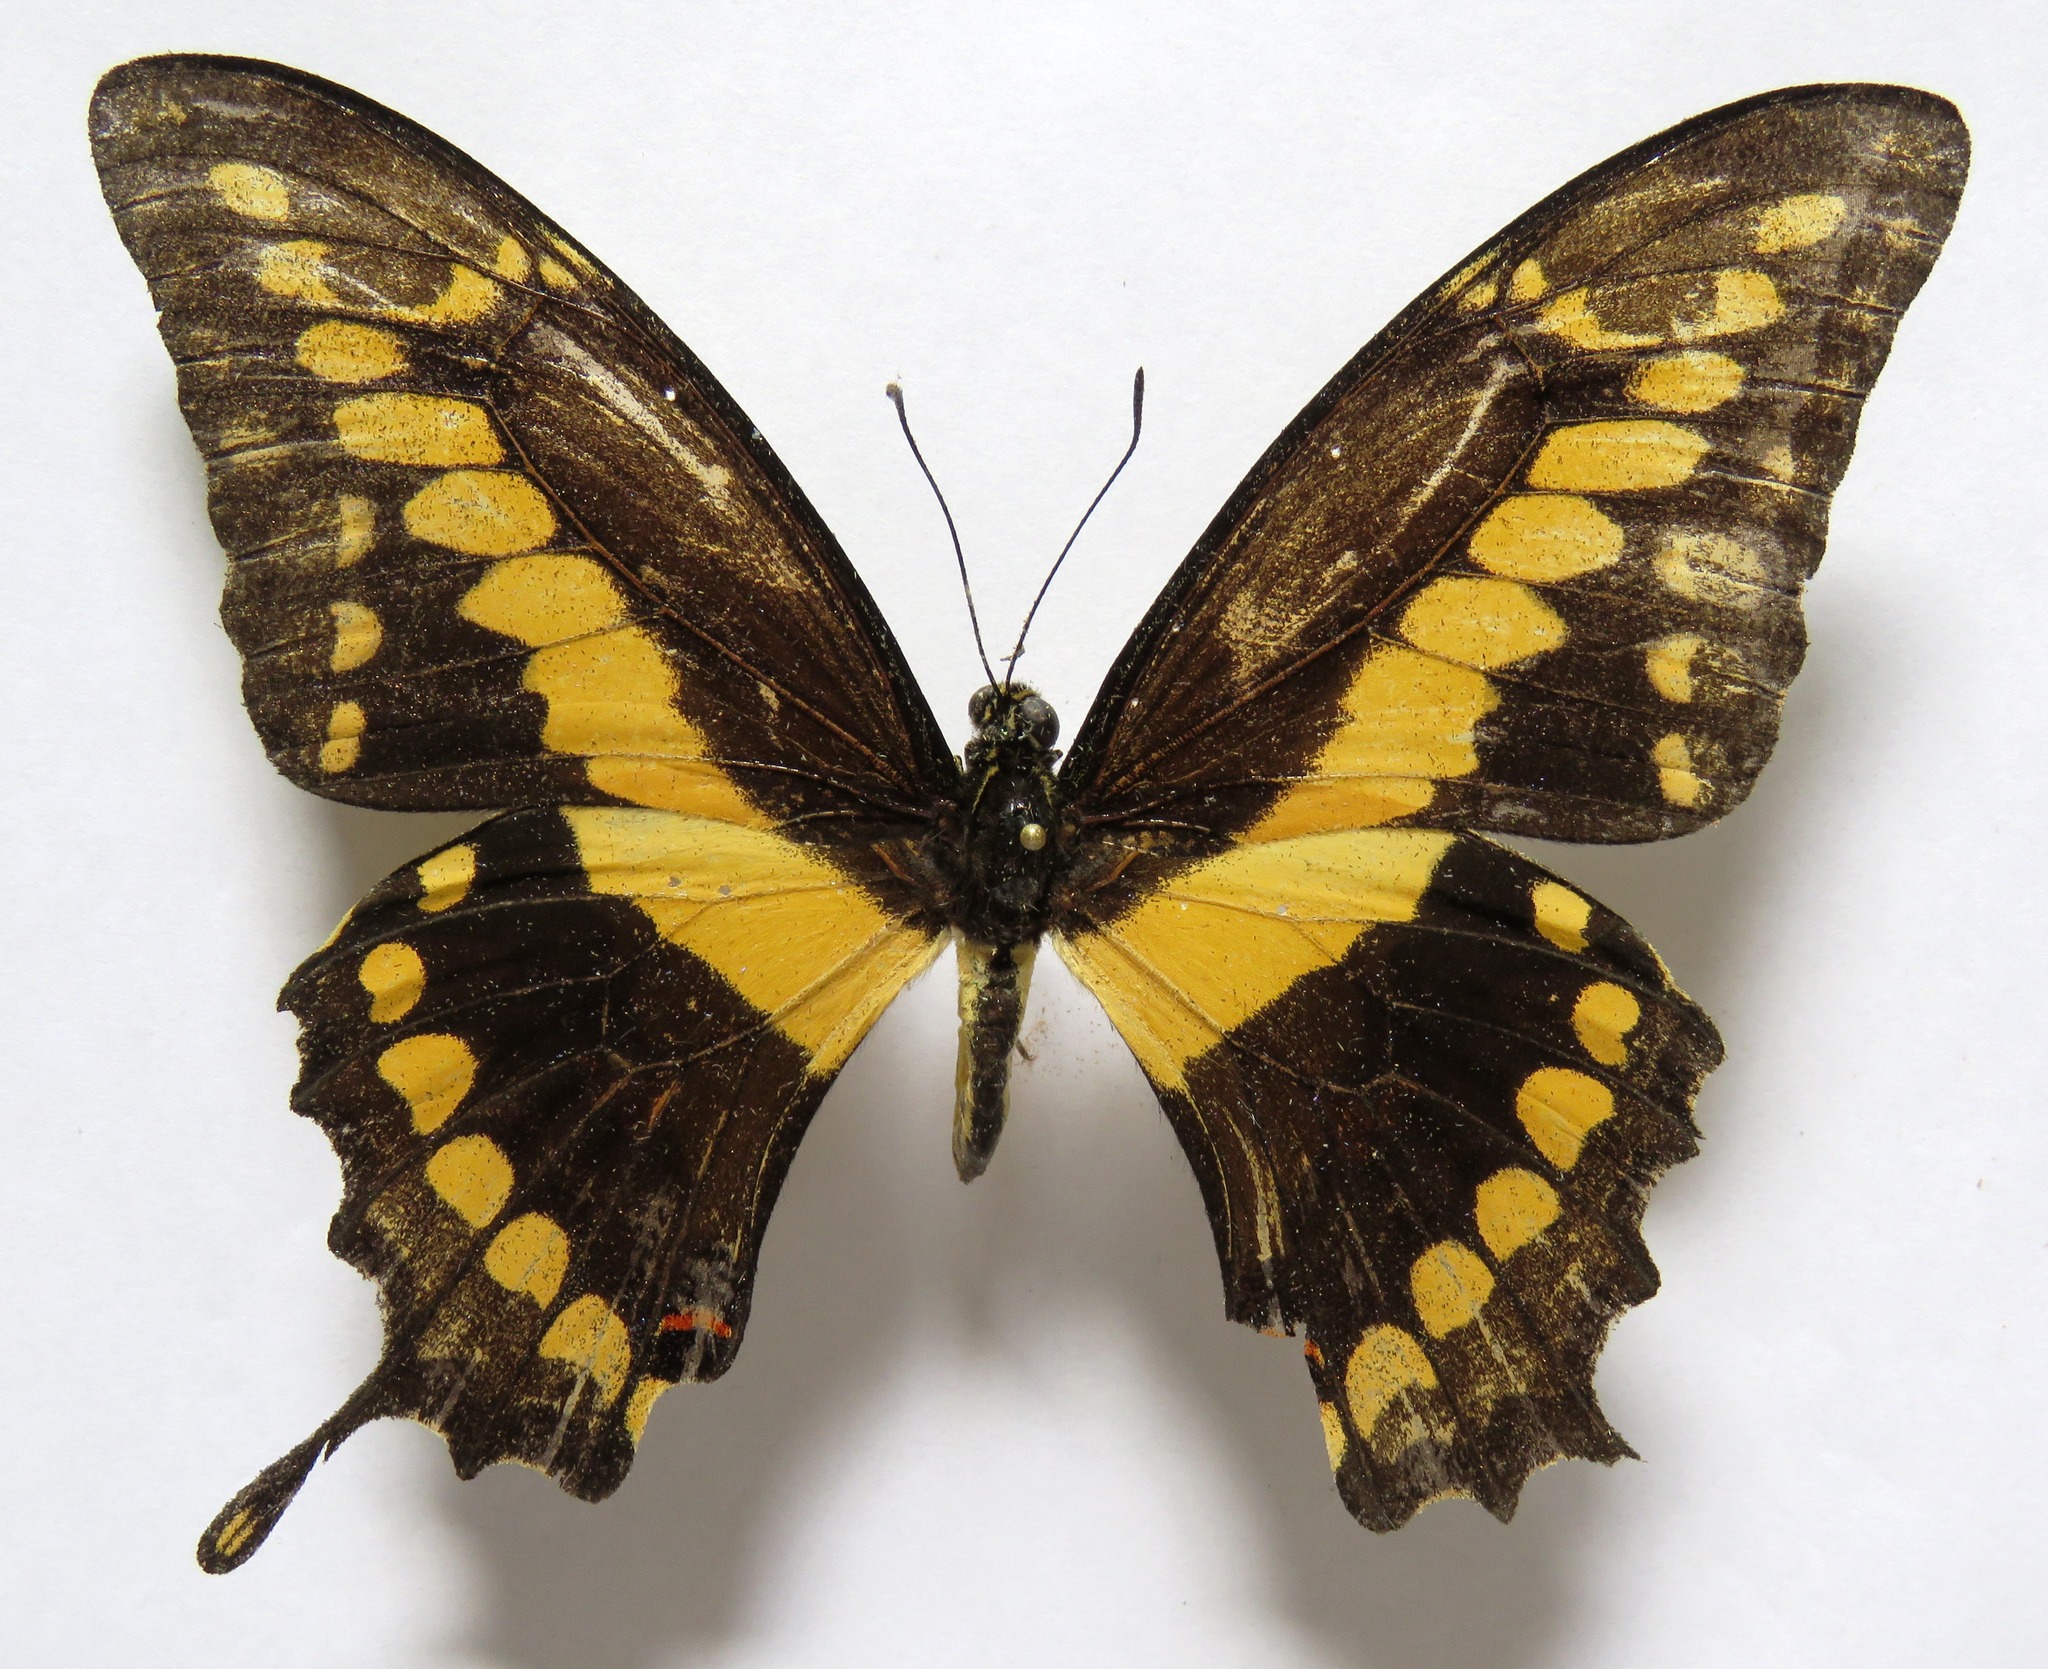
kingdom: Animalia
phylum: Arthropoda
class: Insecta
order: Lepidoptera
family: Papilionidae
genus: Papilio
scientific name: Papilio rumiko
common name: Western giant swallowtail
